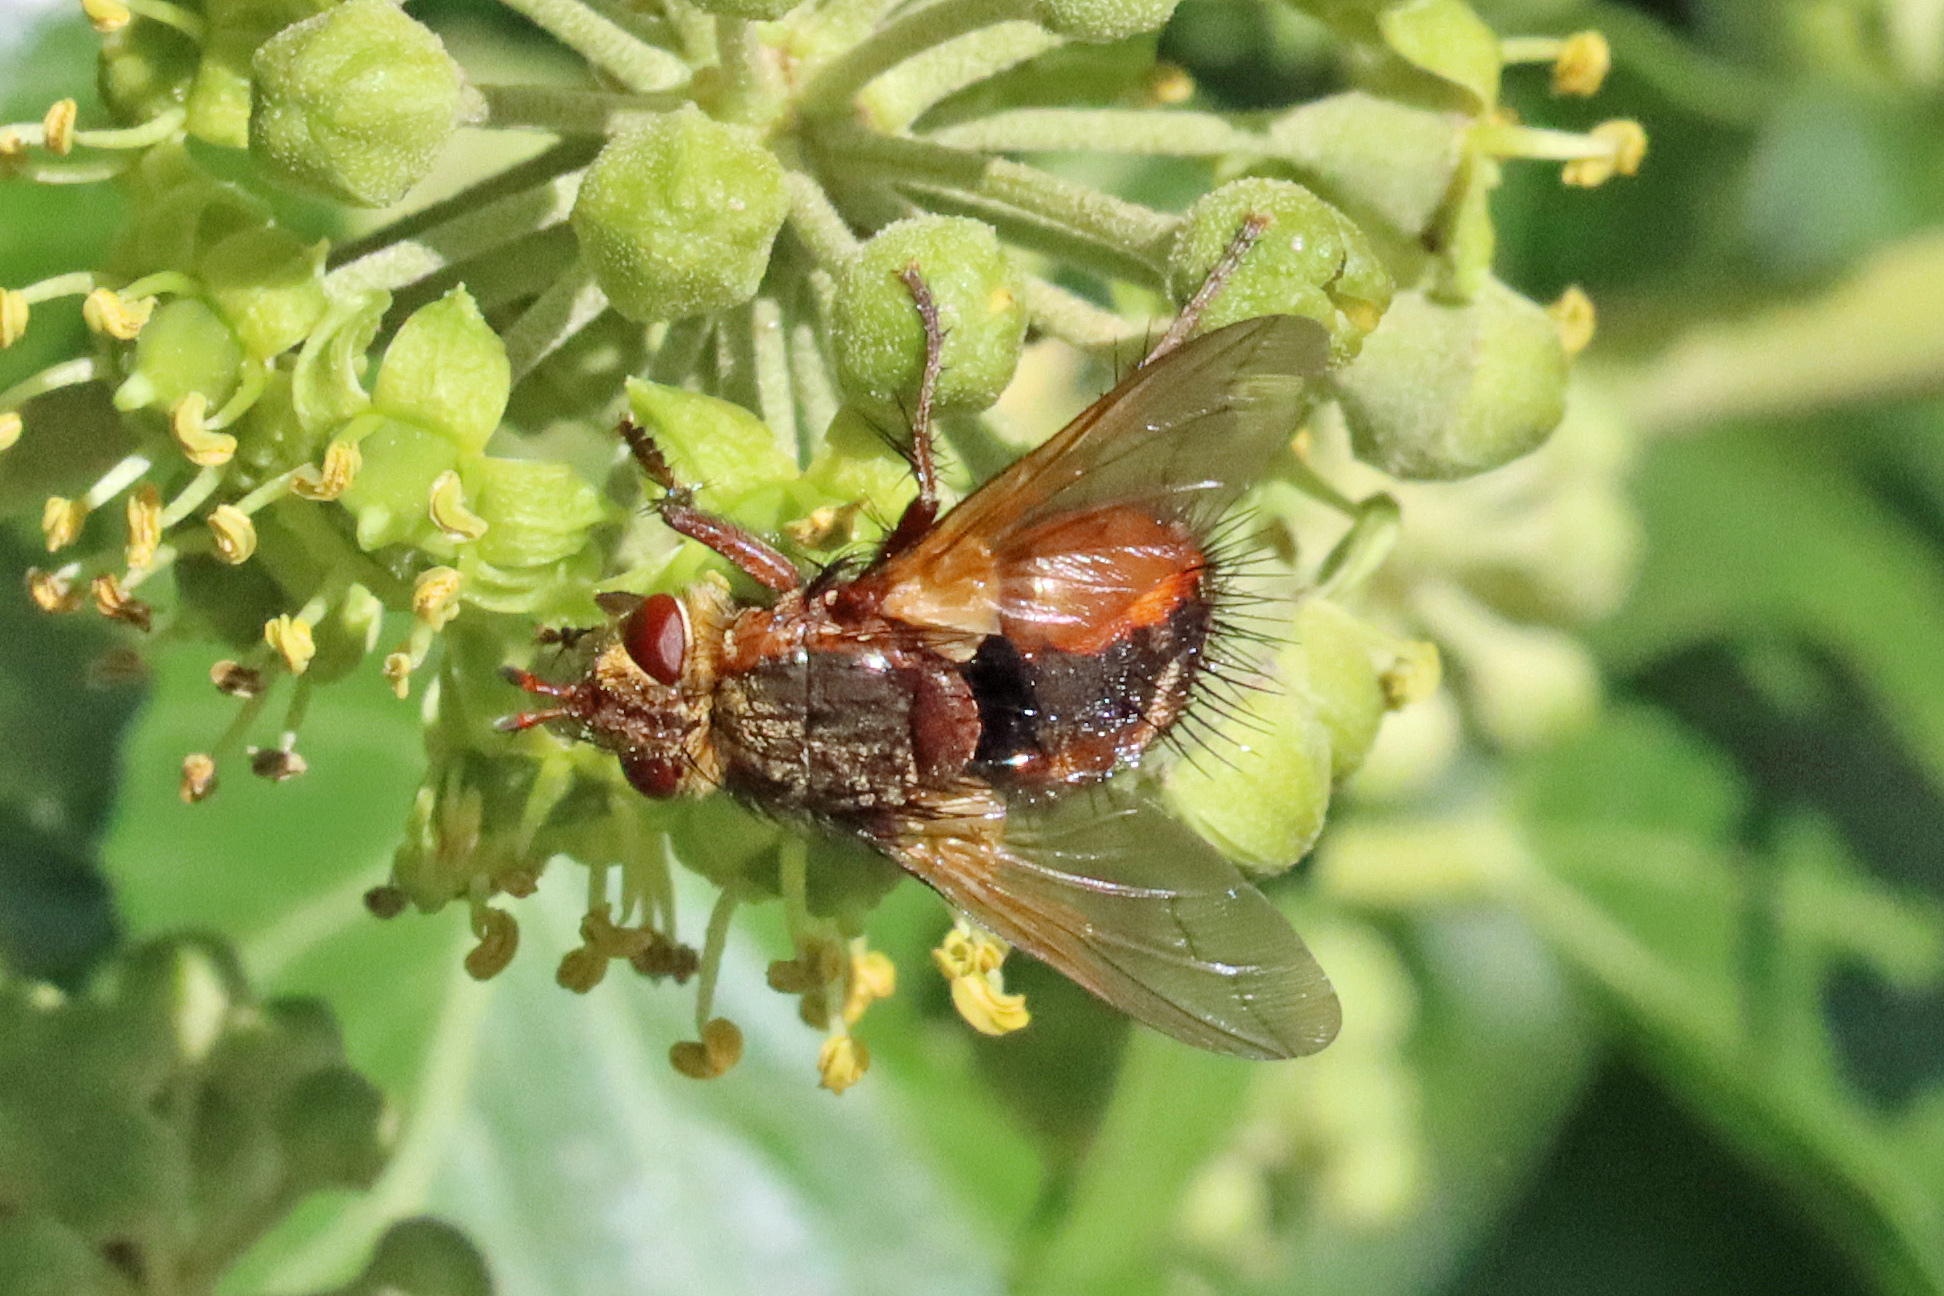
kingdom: Animalia
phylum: Arthropoda
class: Insecta
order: Diptera
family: Tachinidae
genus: Tachina
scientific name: Tachina fera
